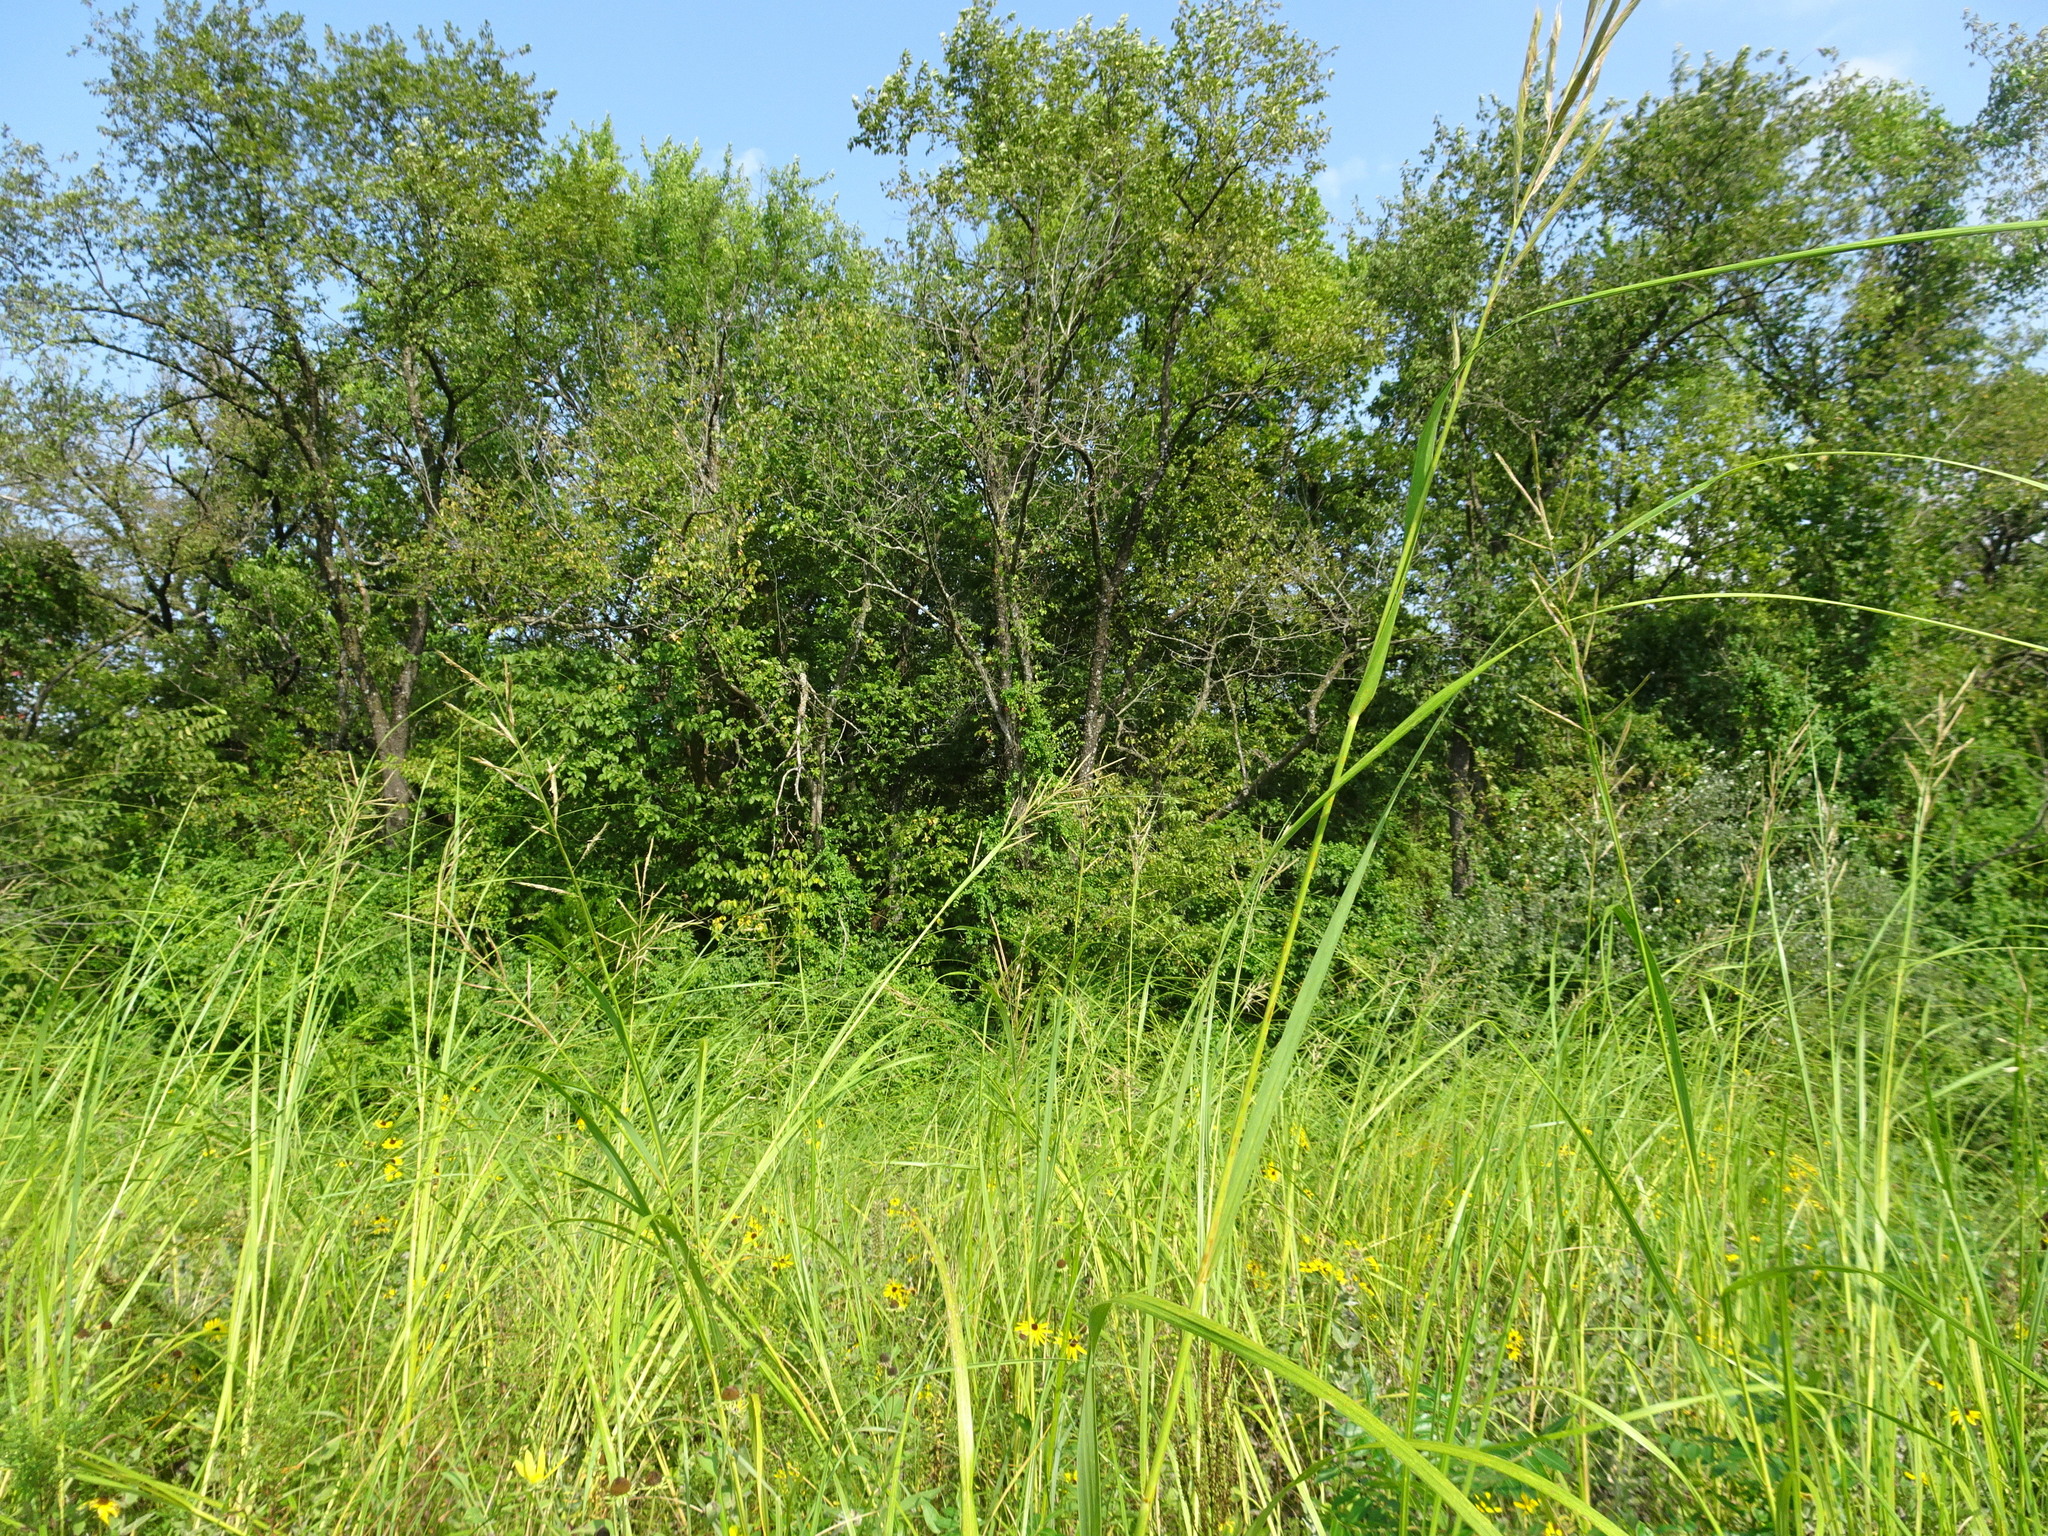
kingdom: Plantae
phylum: Tracheophyta
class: Liliopsida
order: Poales
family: Poaceae
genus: Sporobolus
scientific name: Sporobolus michauxianus
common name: Freshwater cordgrass
